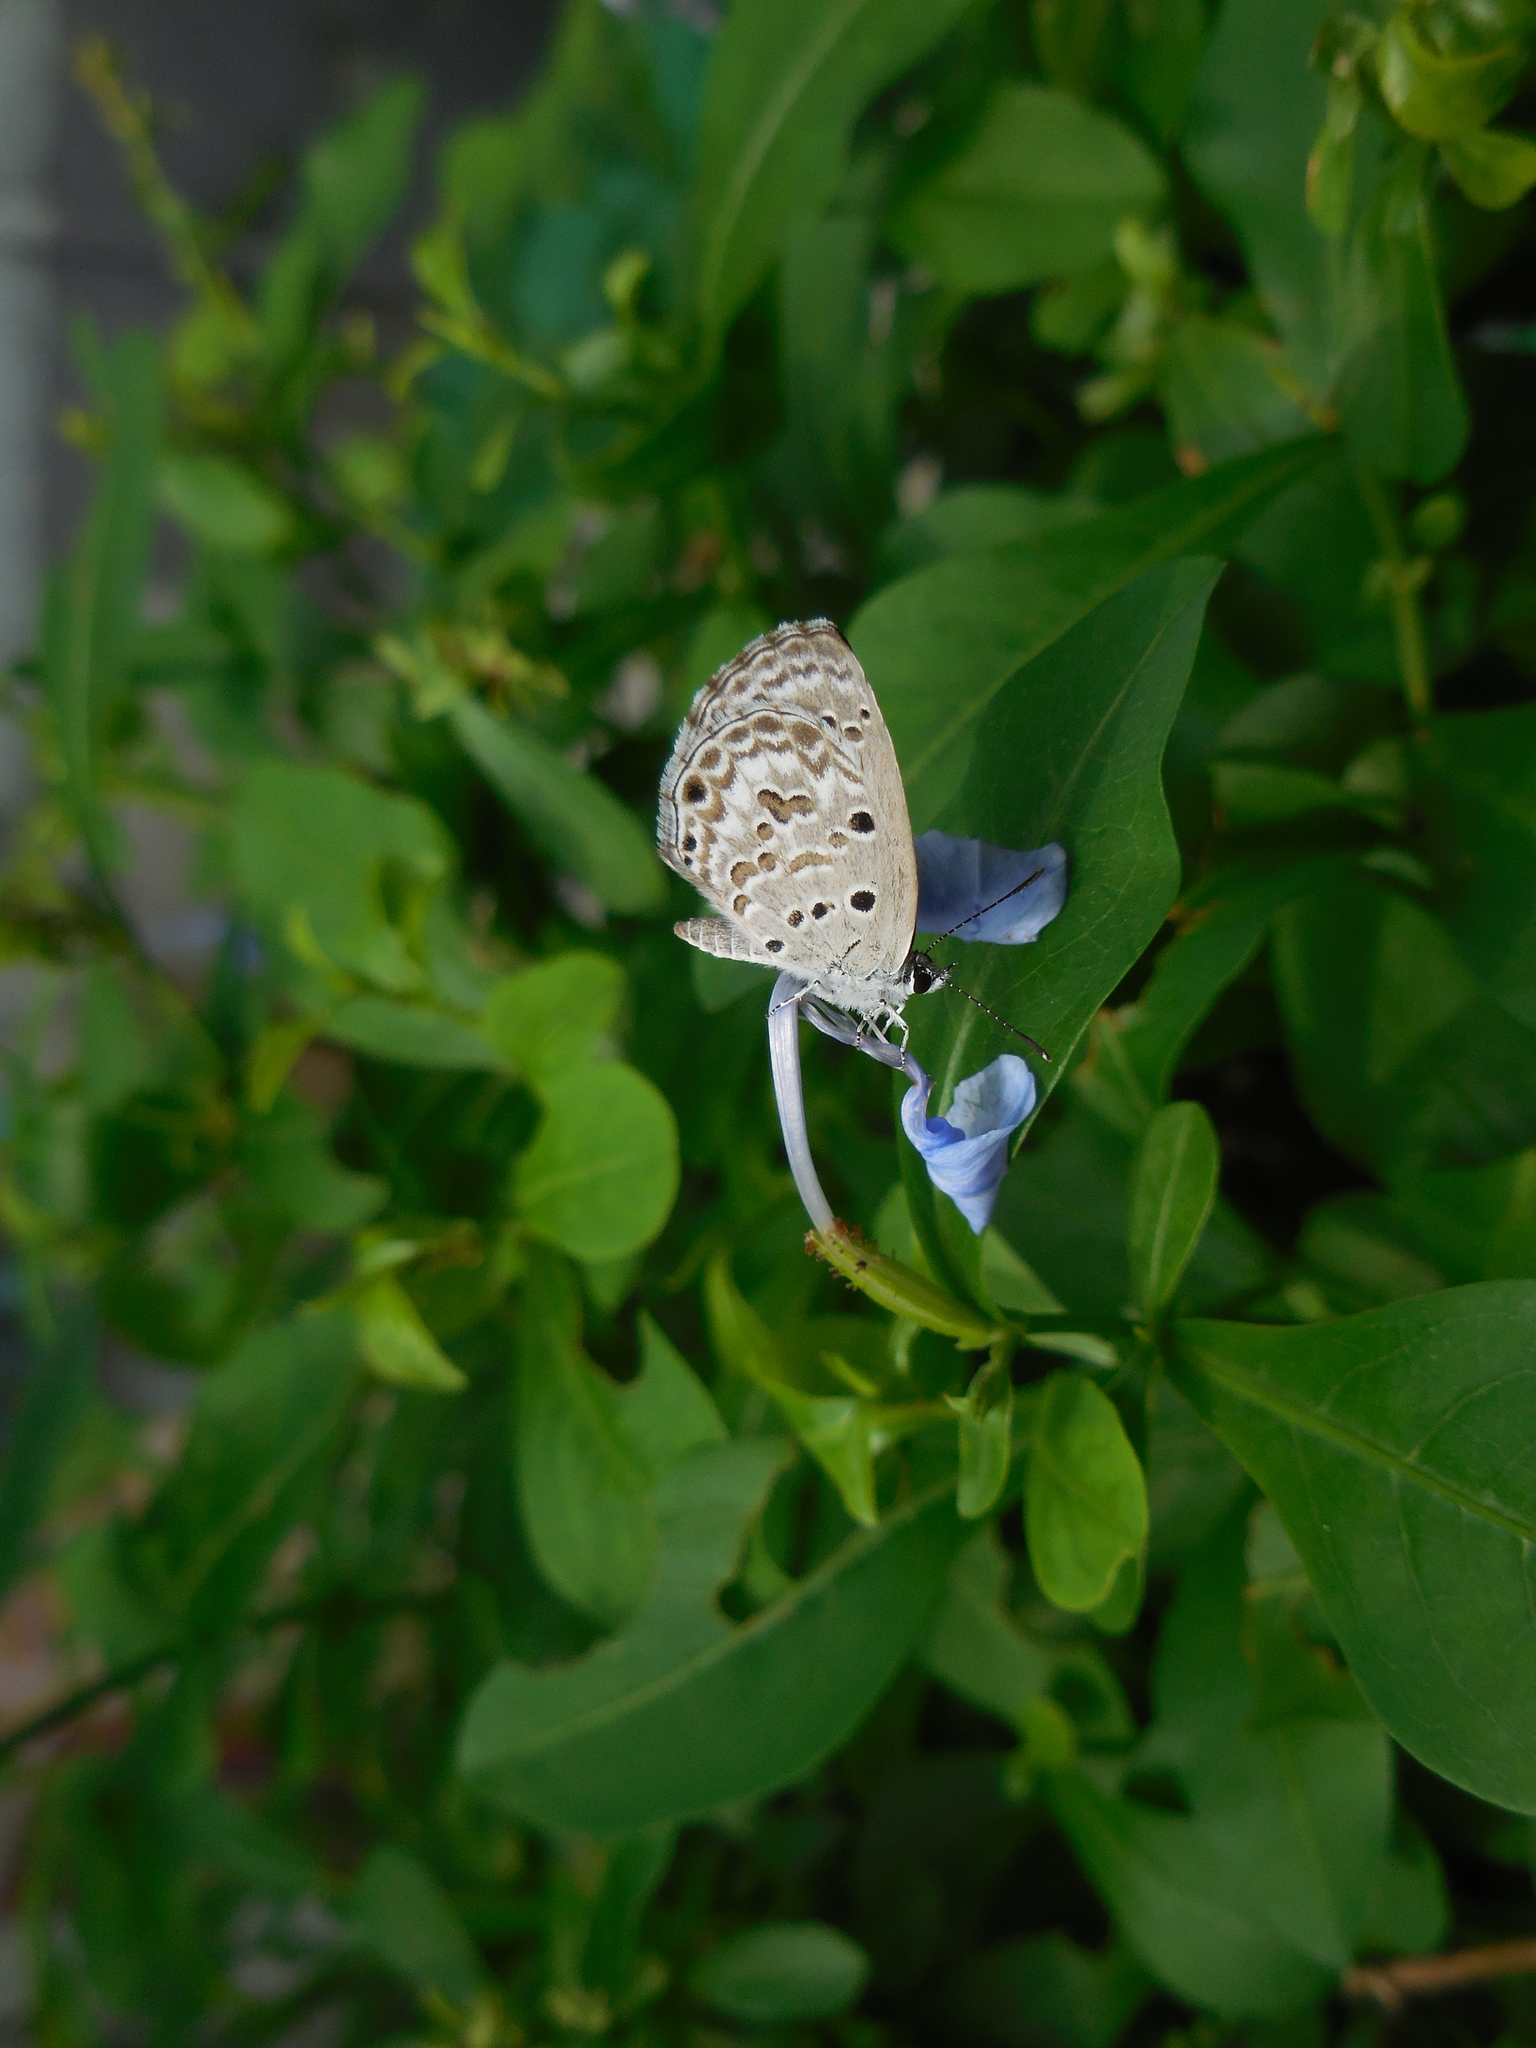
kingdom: Animalia
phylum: Arthropoda
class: Insecta
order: Lepidoptera
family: Lycaenidae
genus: Chilades
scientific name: Chilades laius
